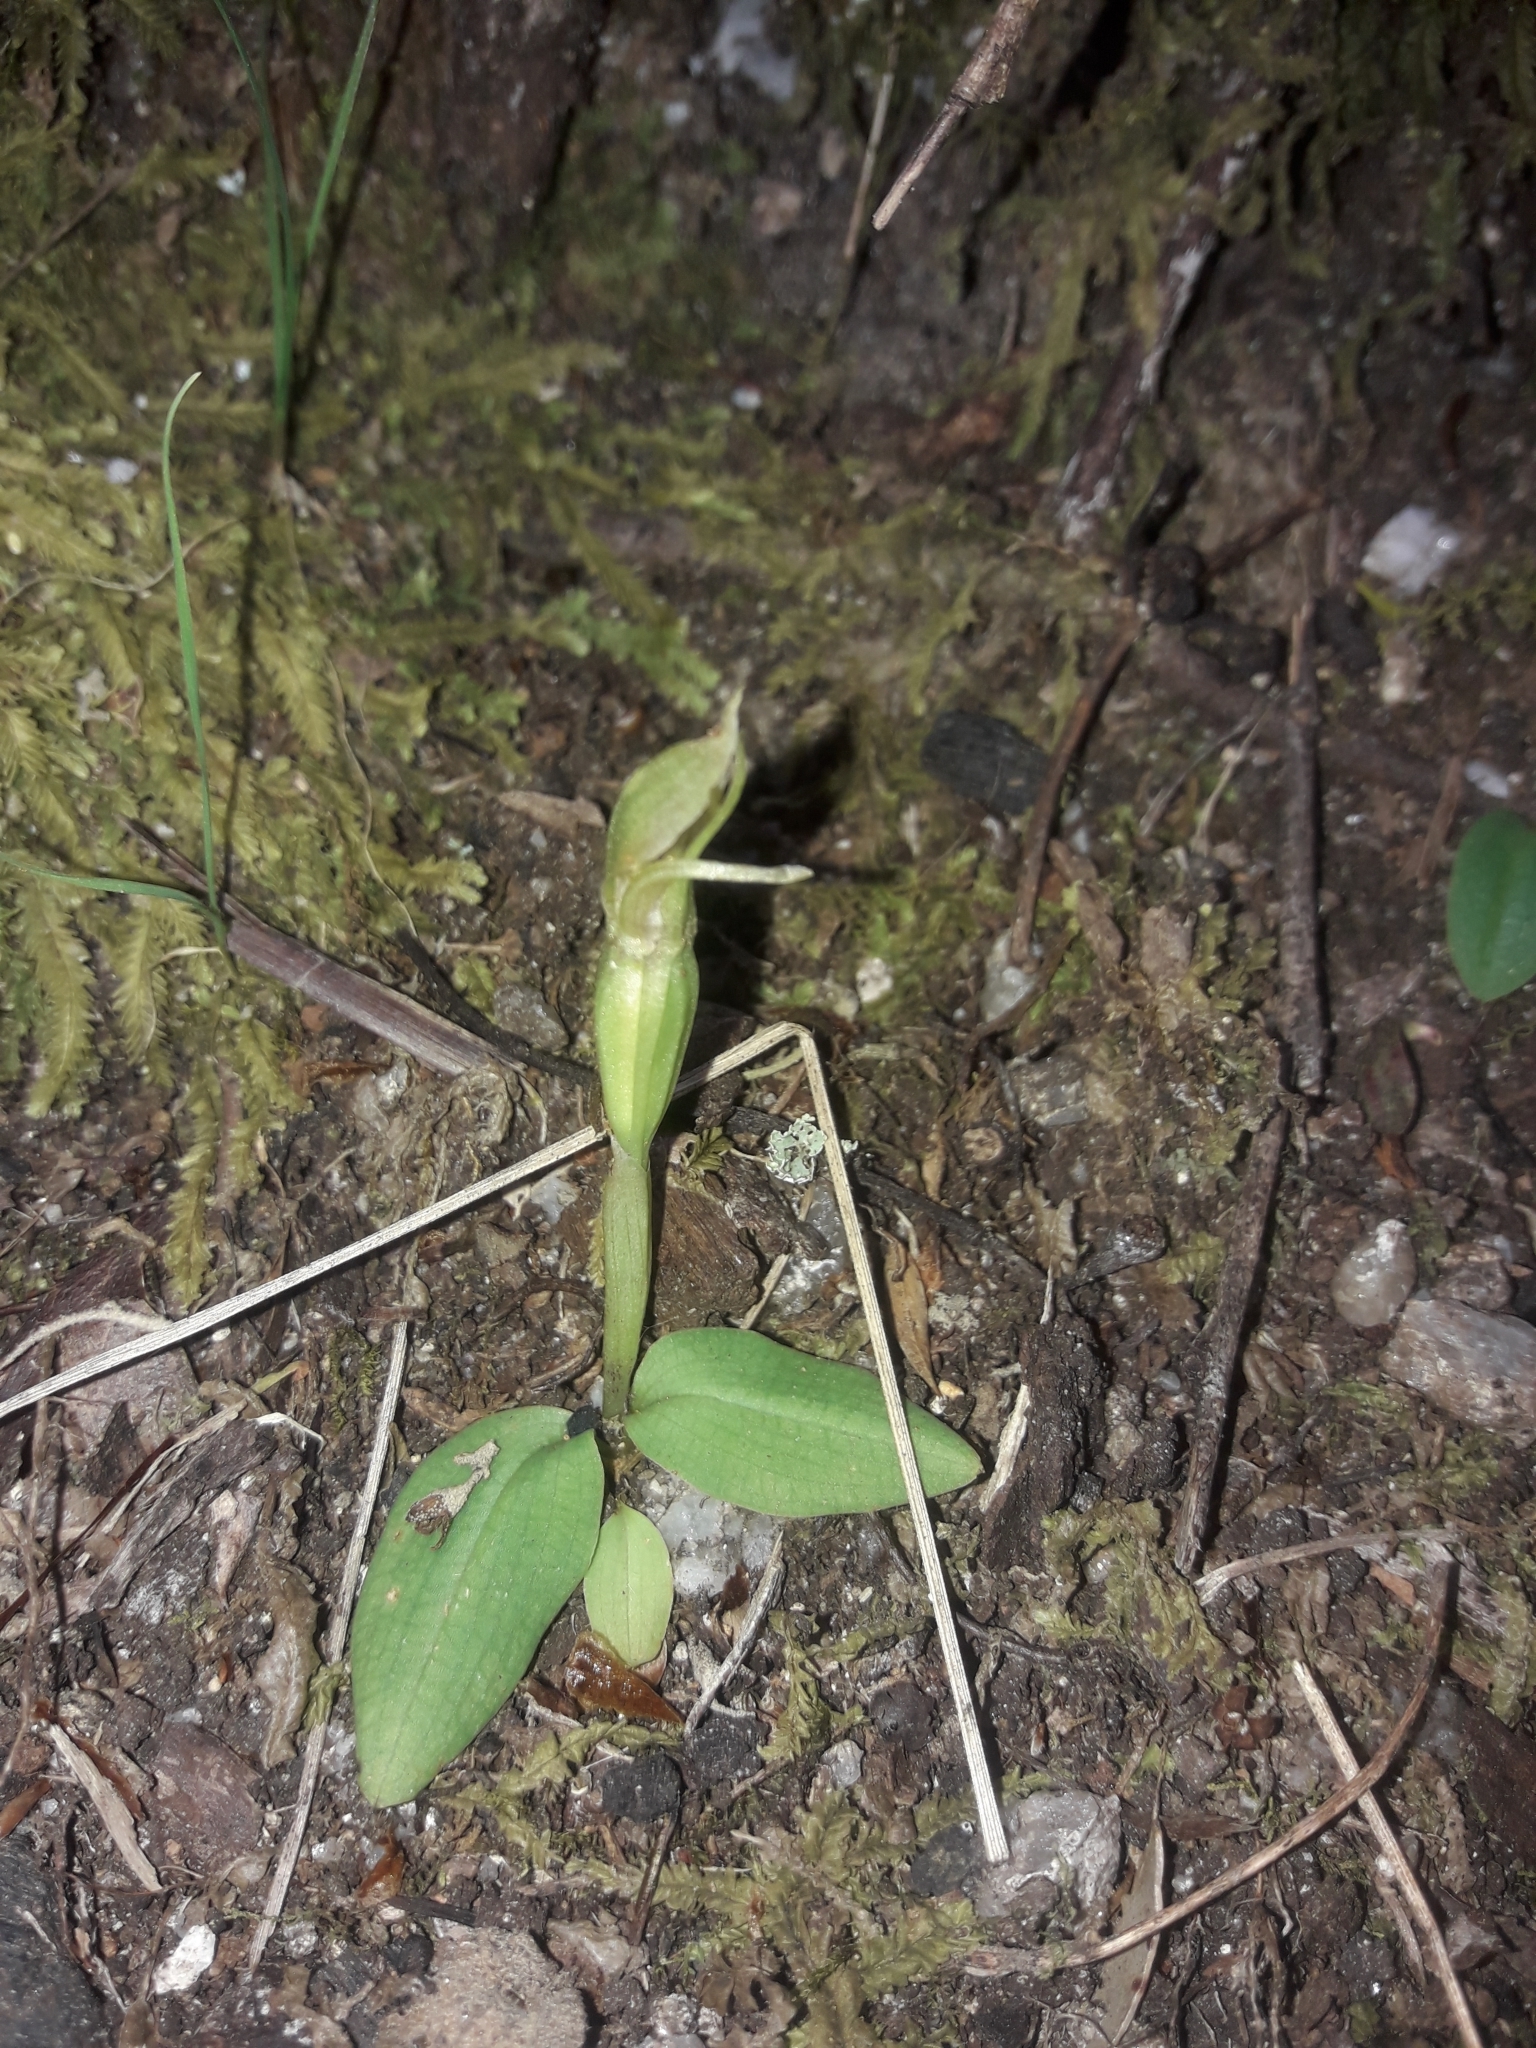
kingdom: Plantae
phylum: Tracheophyta
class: Liliopsida
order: Asparagales
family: Orchidaceae
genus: Chiloglottis
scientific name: Chiloglottis cornuta
